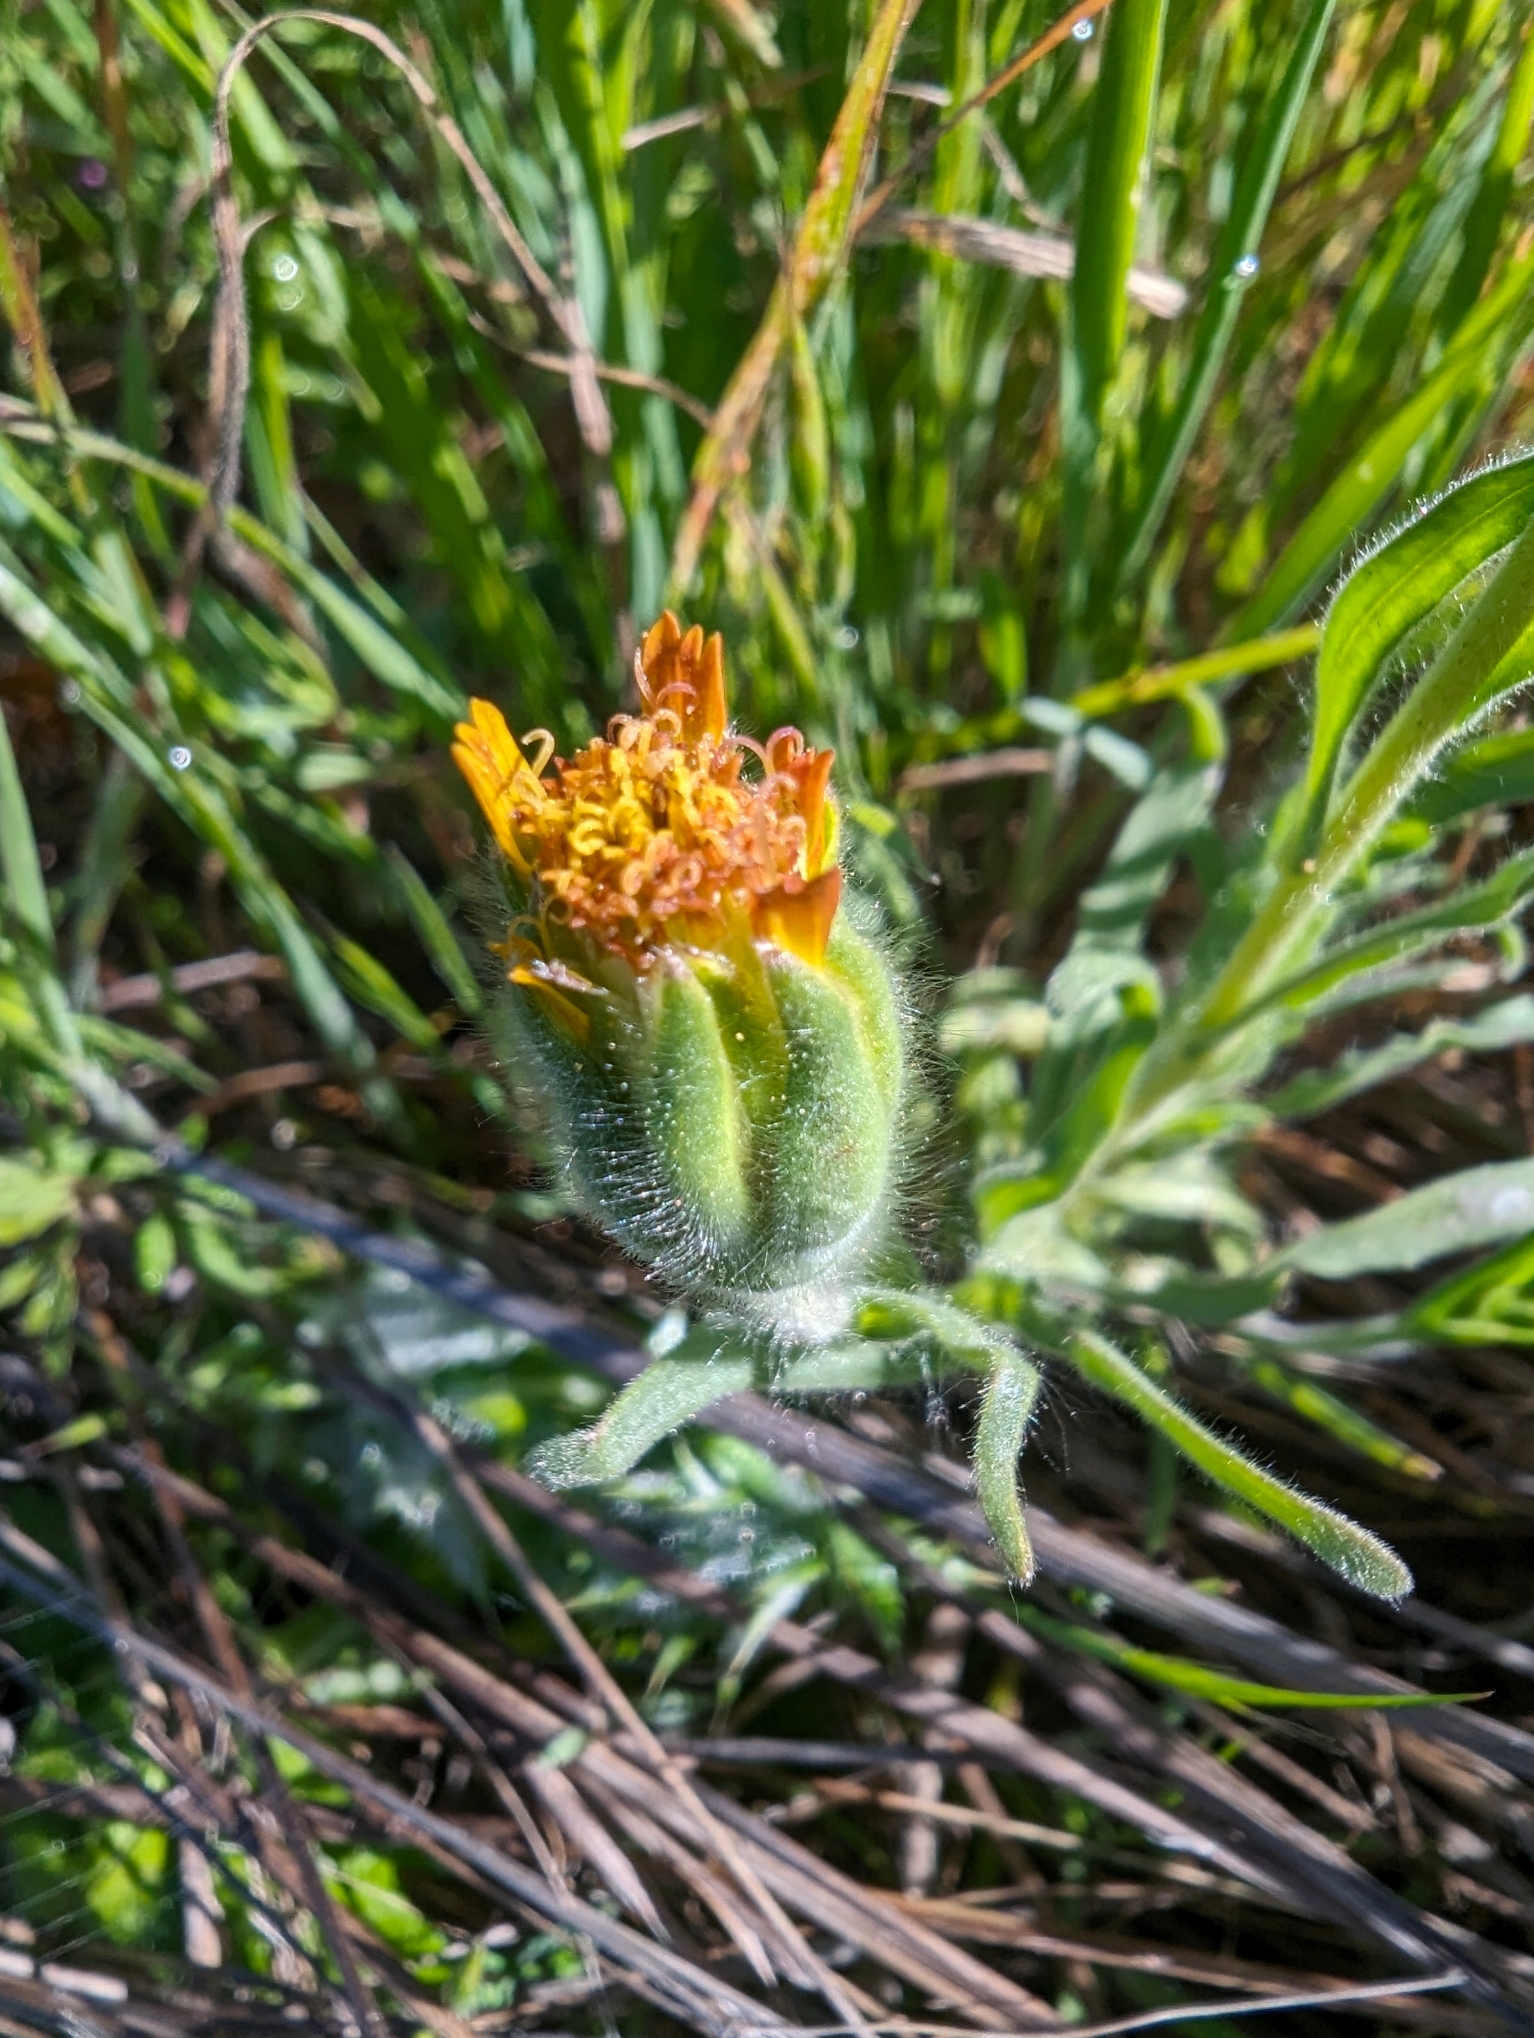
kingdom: Plantae
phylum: Tracheophyta
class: Magnoliopsida
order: Asterales
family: Asteraceae
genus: Achyrachaena
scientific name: Achyrachaena mollis
